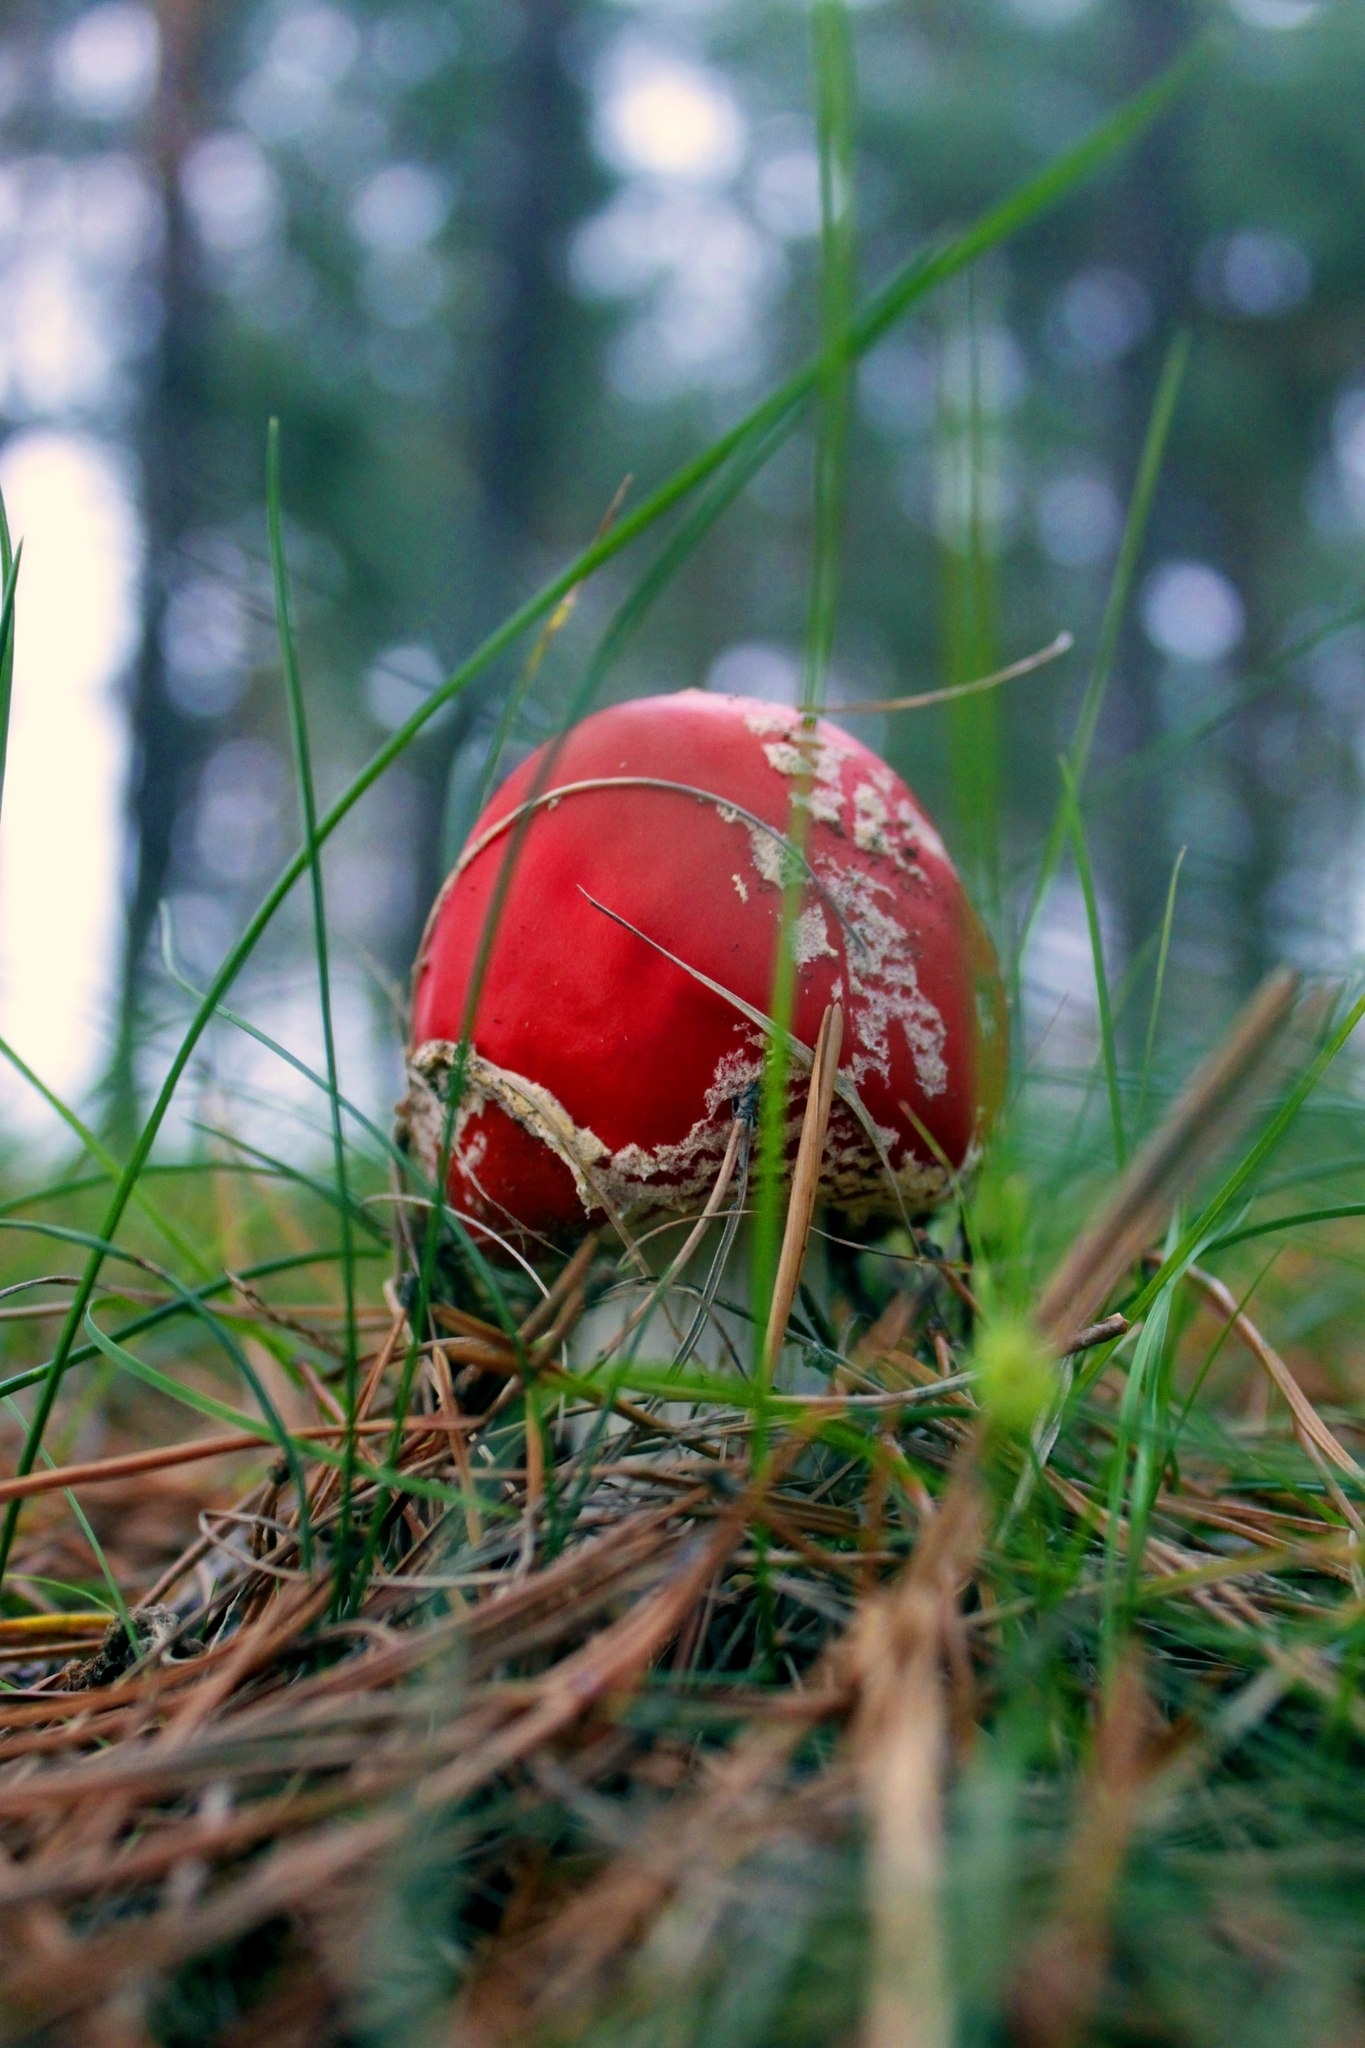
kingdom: Fungi
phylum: Basidiomycota
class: Agaricomycetes
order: Agaricales
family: Amanitaceae
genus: Amanita
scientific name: Amanita muscaria
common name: Fly agaric
